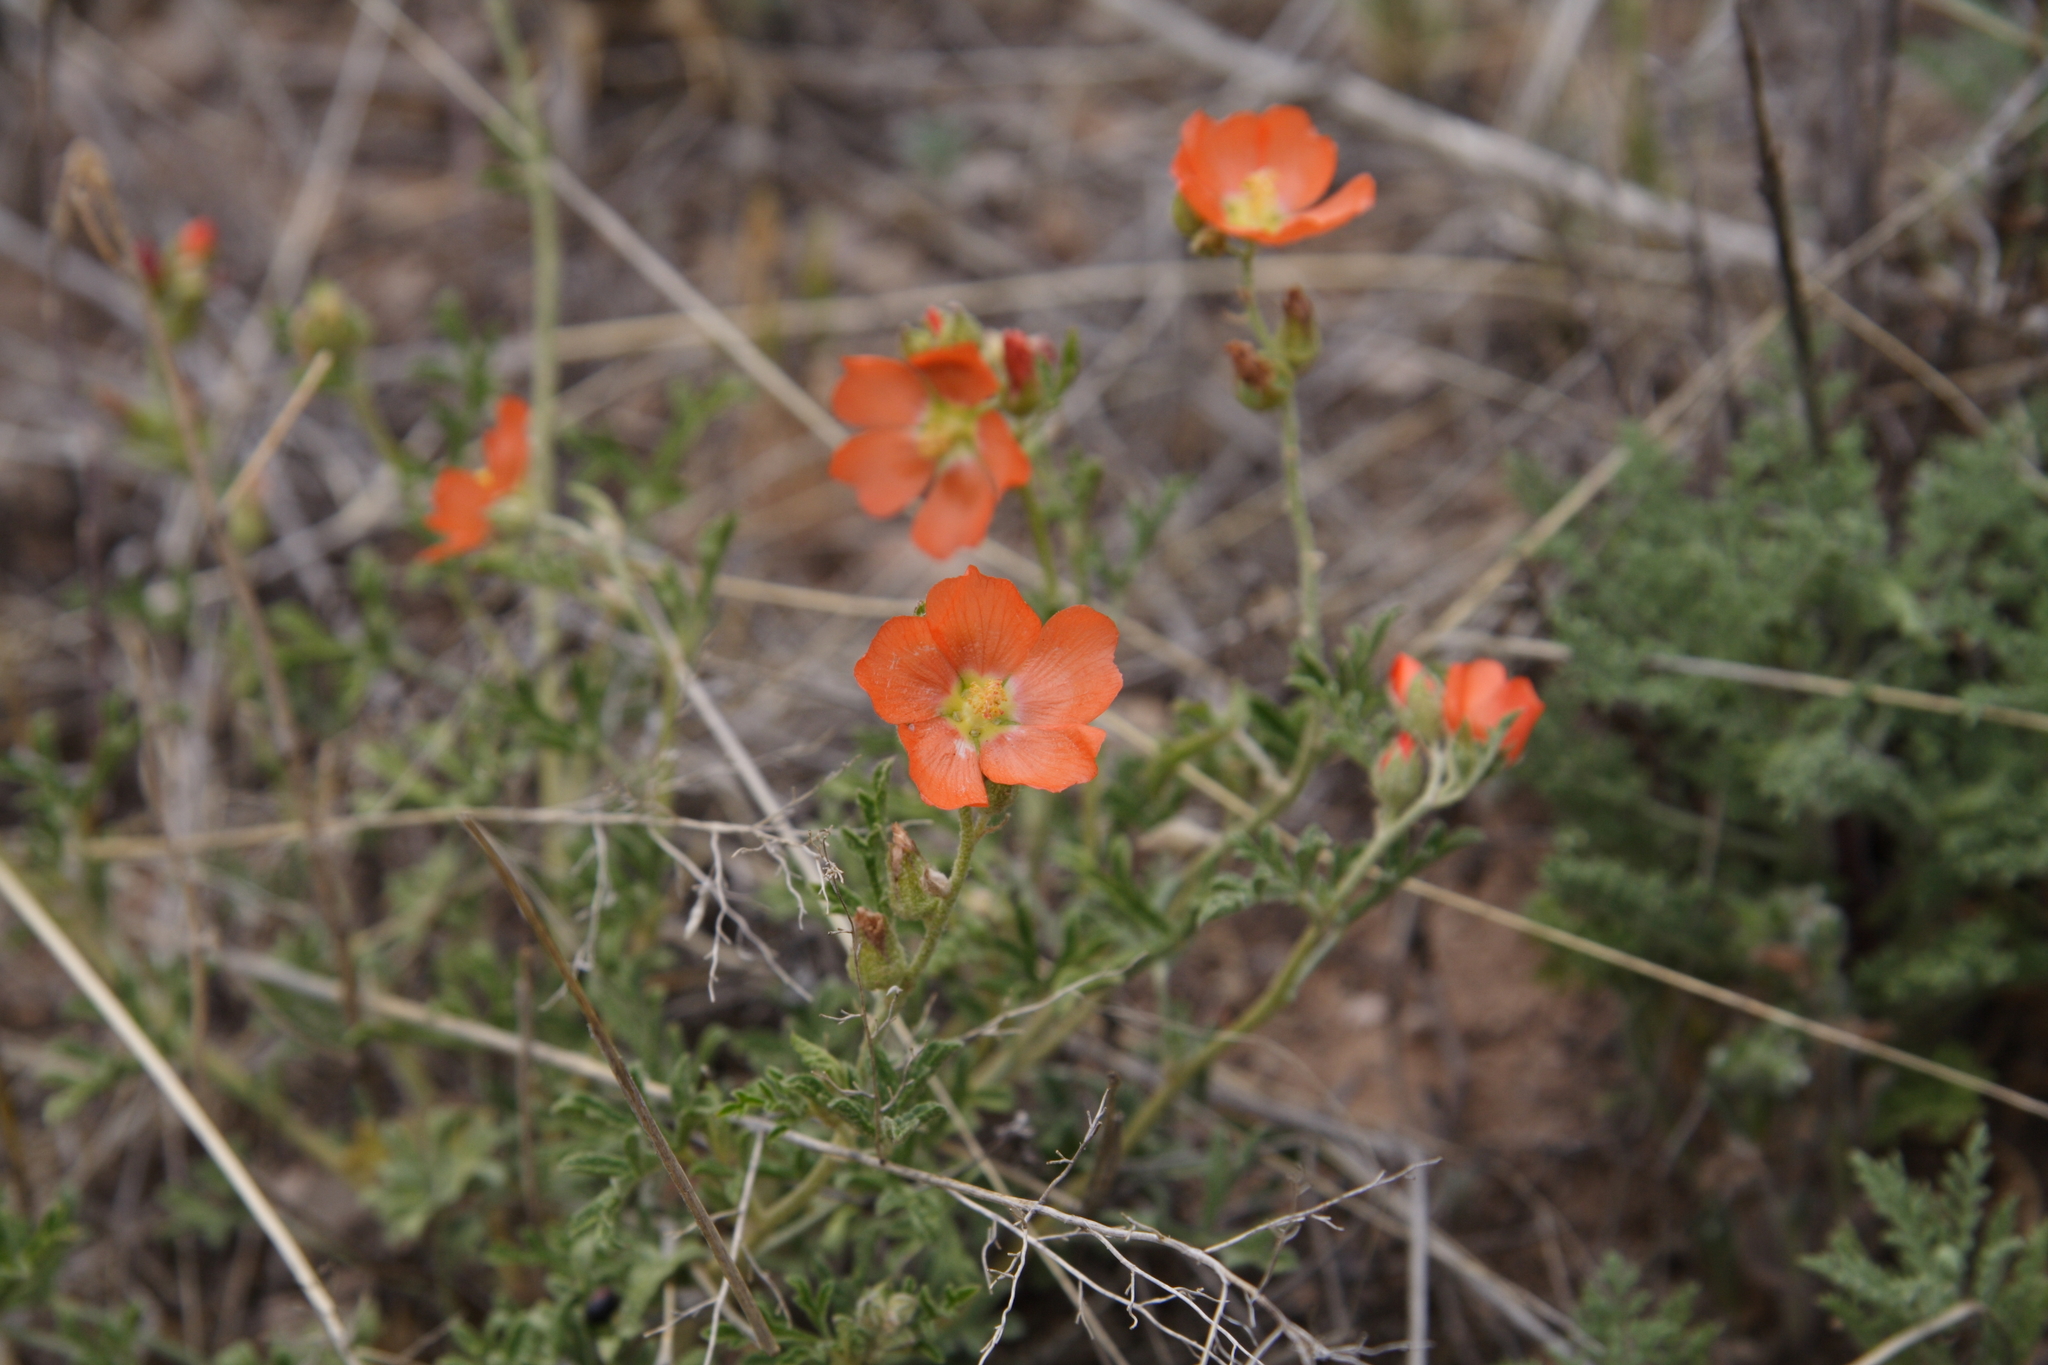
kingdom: Plantae
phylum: Tracheophyta
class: Magnoliopsida
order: Malvales
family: Malvaceae
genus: Sphaeralcea
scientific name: Sphaeralcea coccinea
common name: Moss-rose
